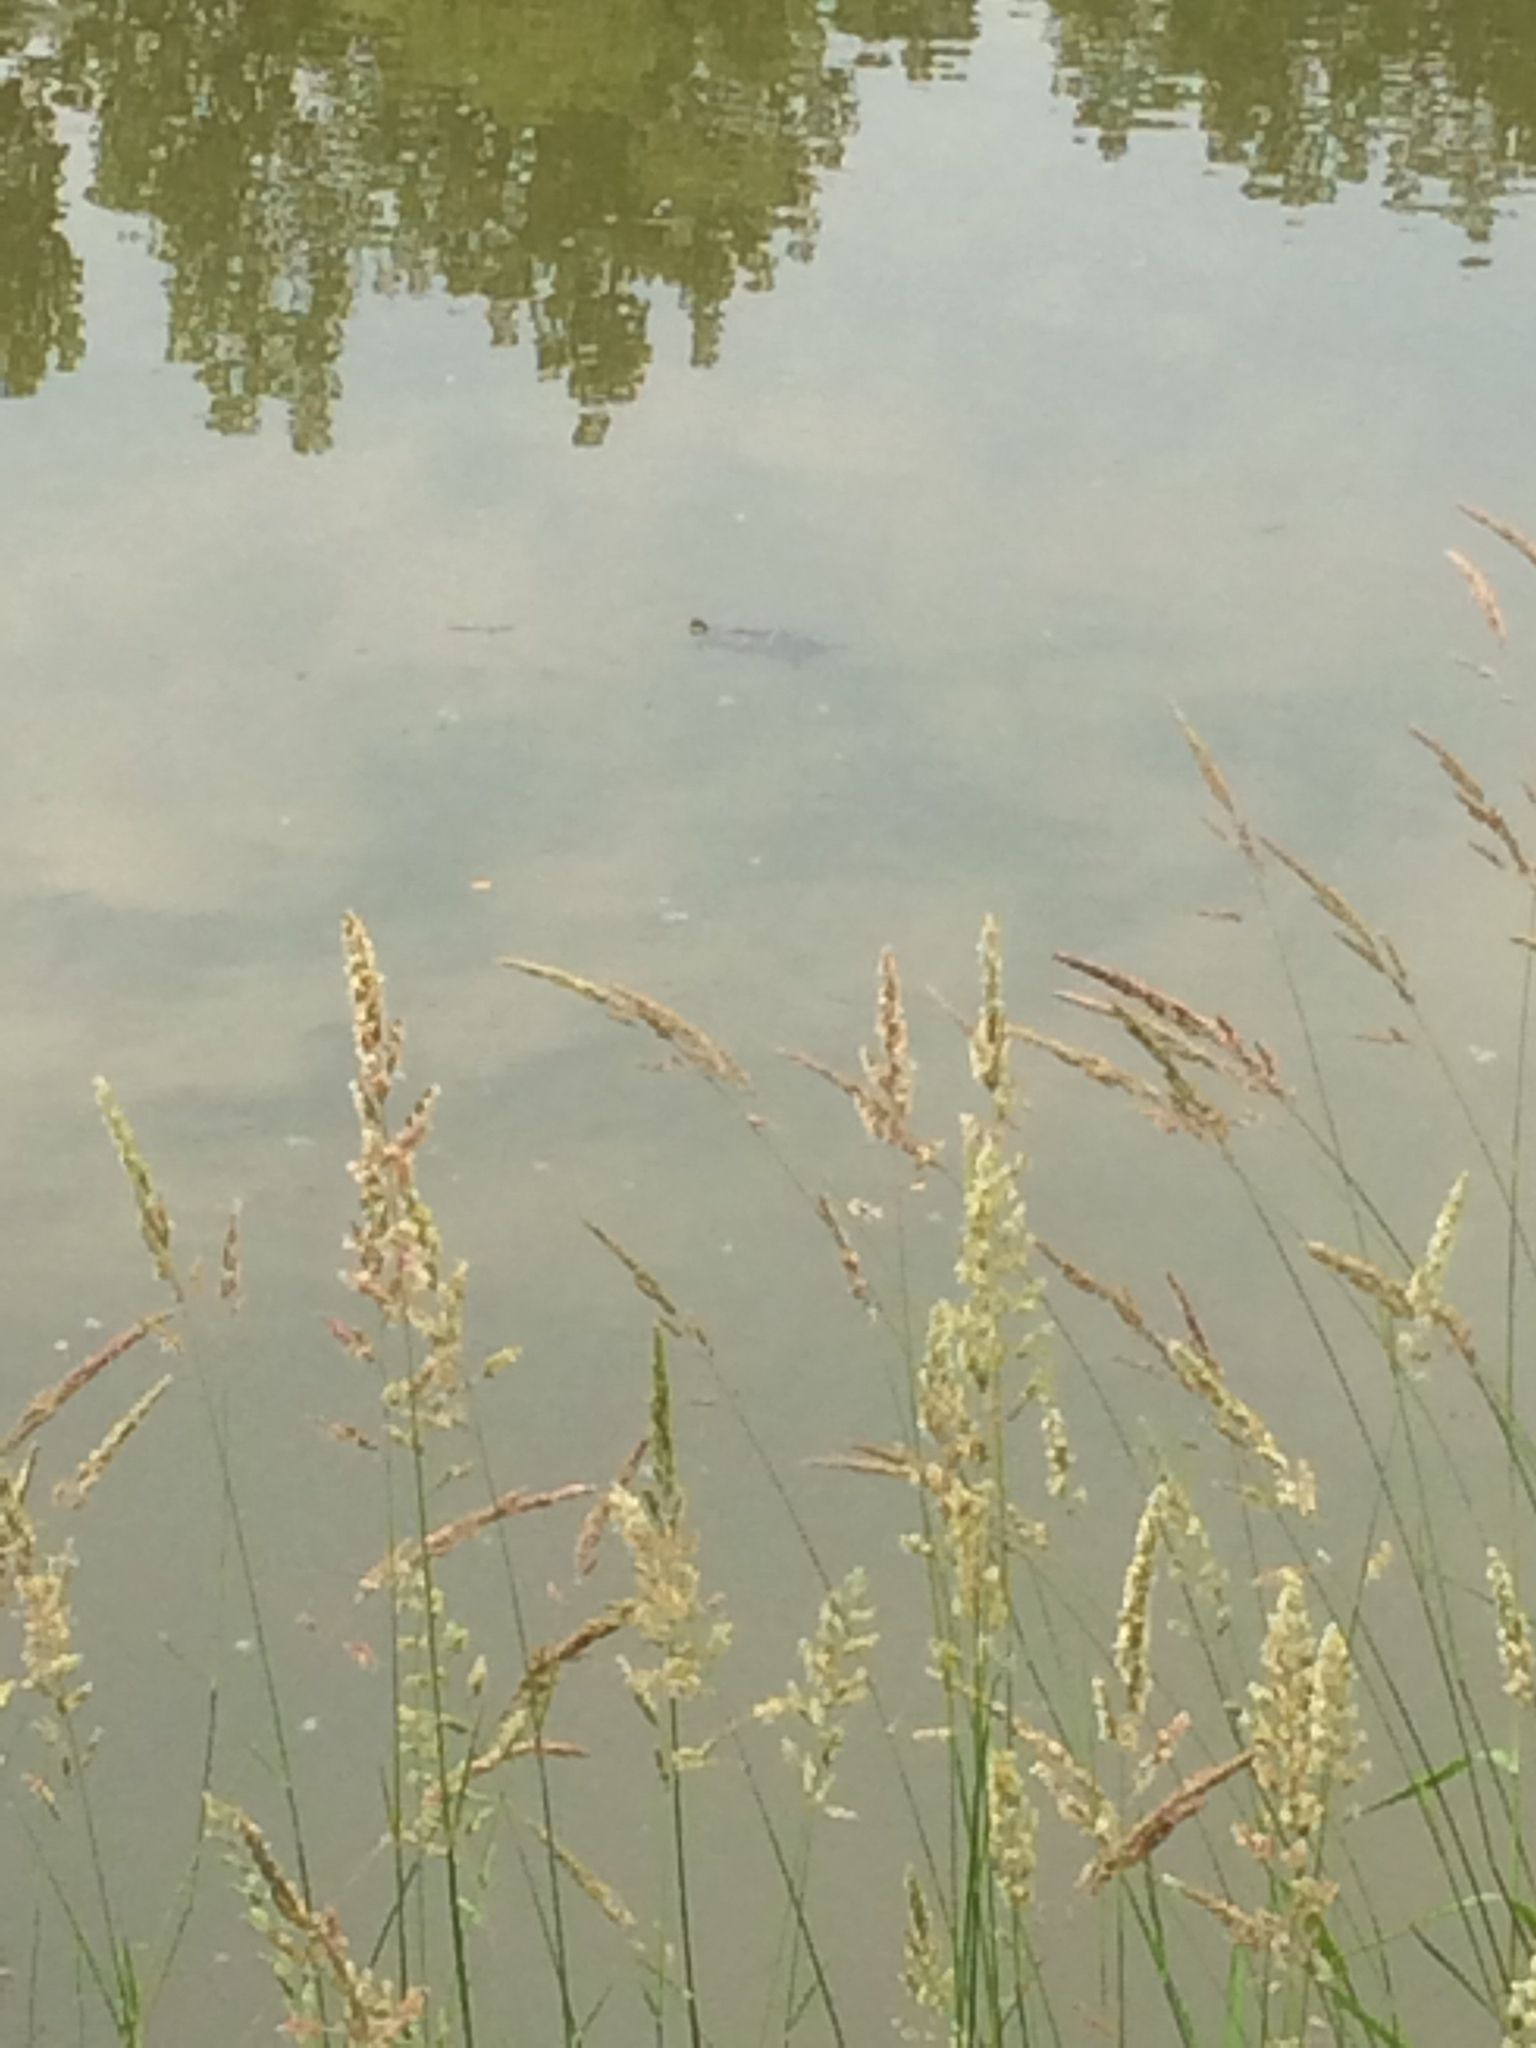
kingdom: Animalia
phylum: Chordata
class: Testudines
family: Emydidae
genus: Chrysemys
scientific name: Chrysemys picta
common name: Painted turtle
